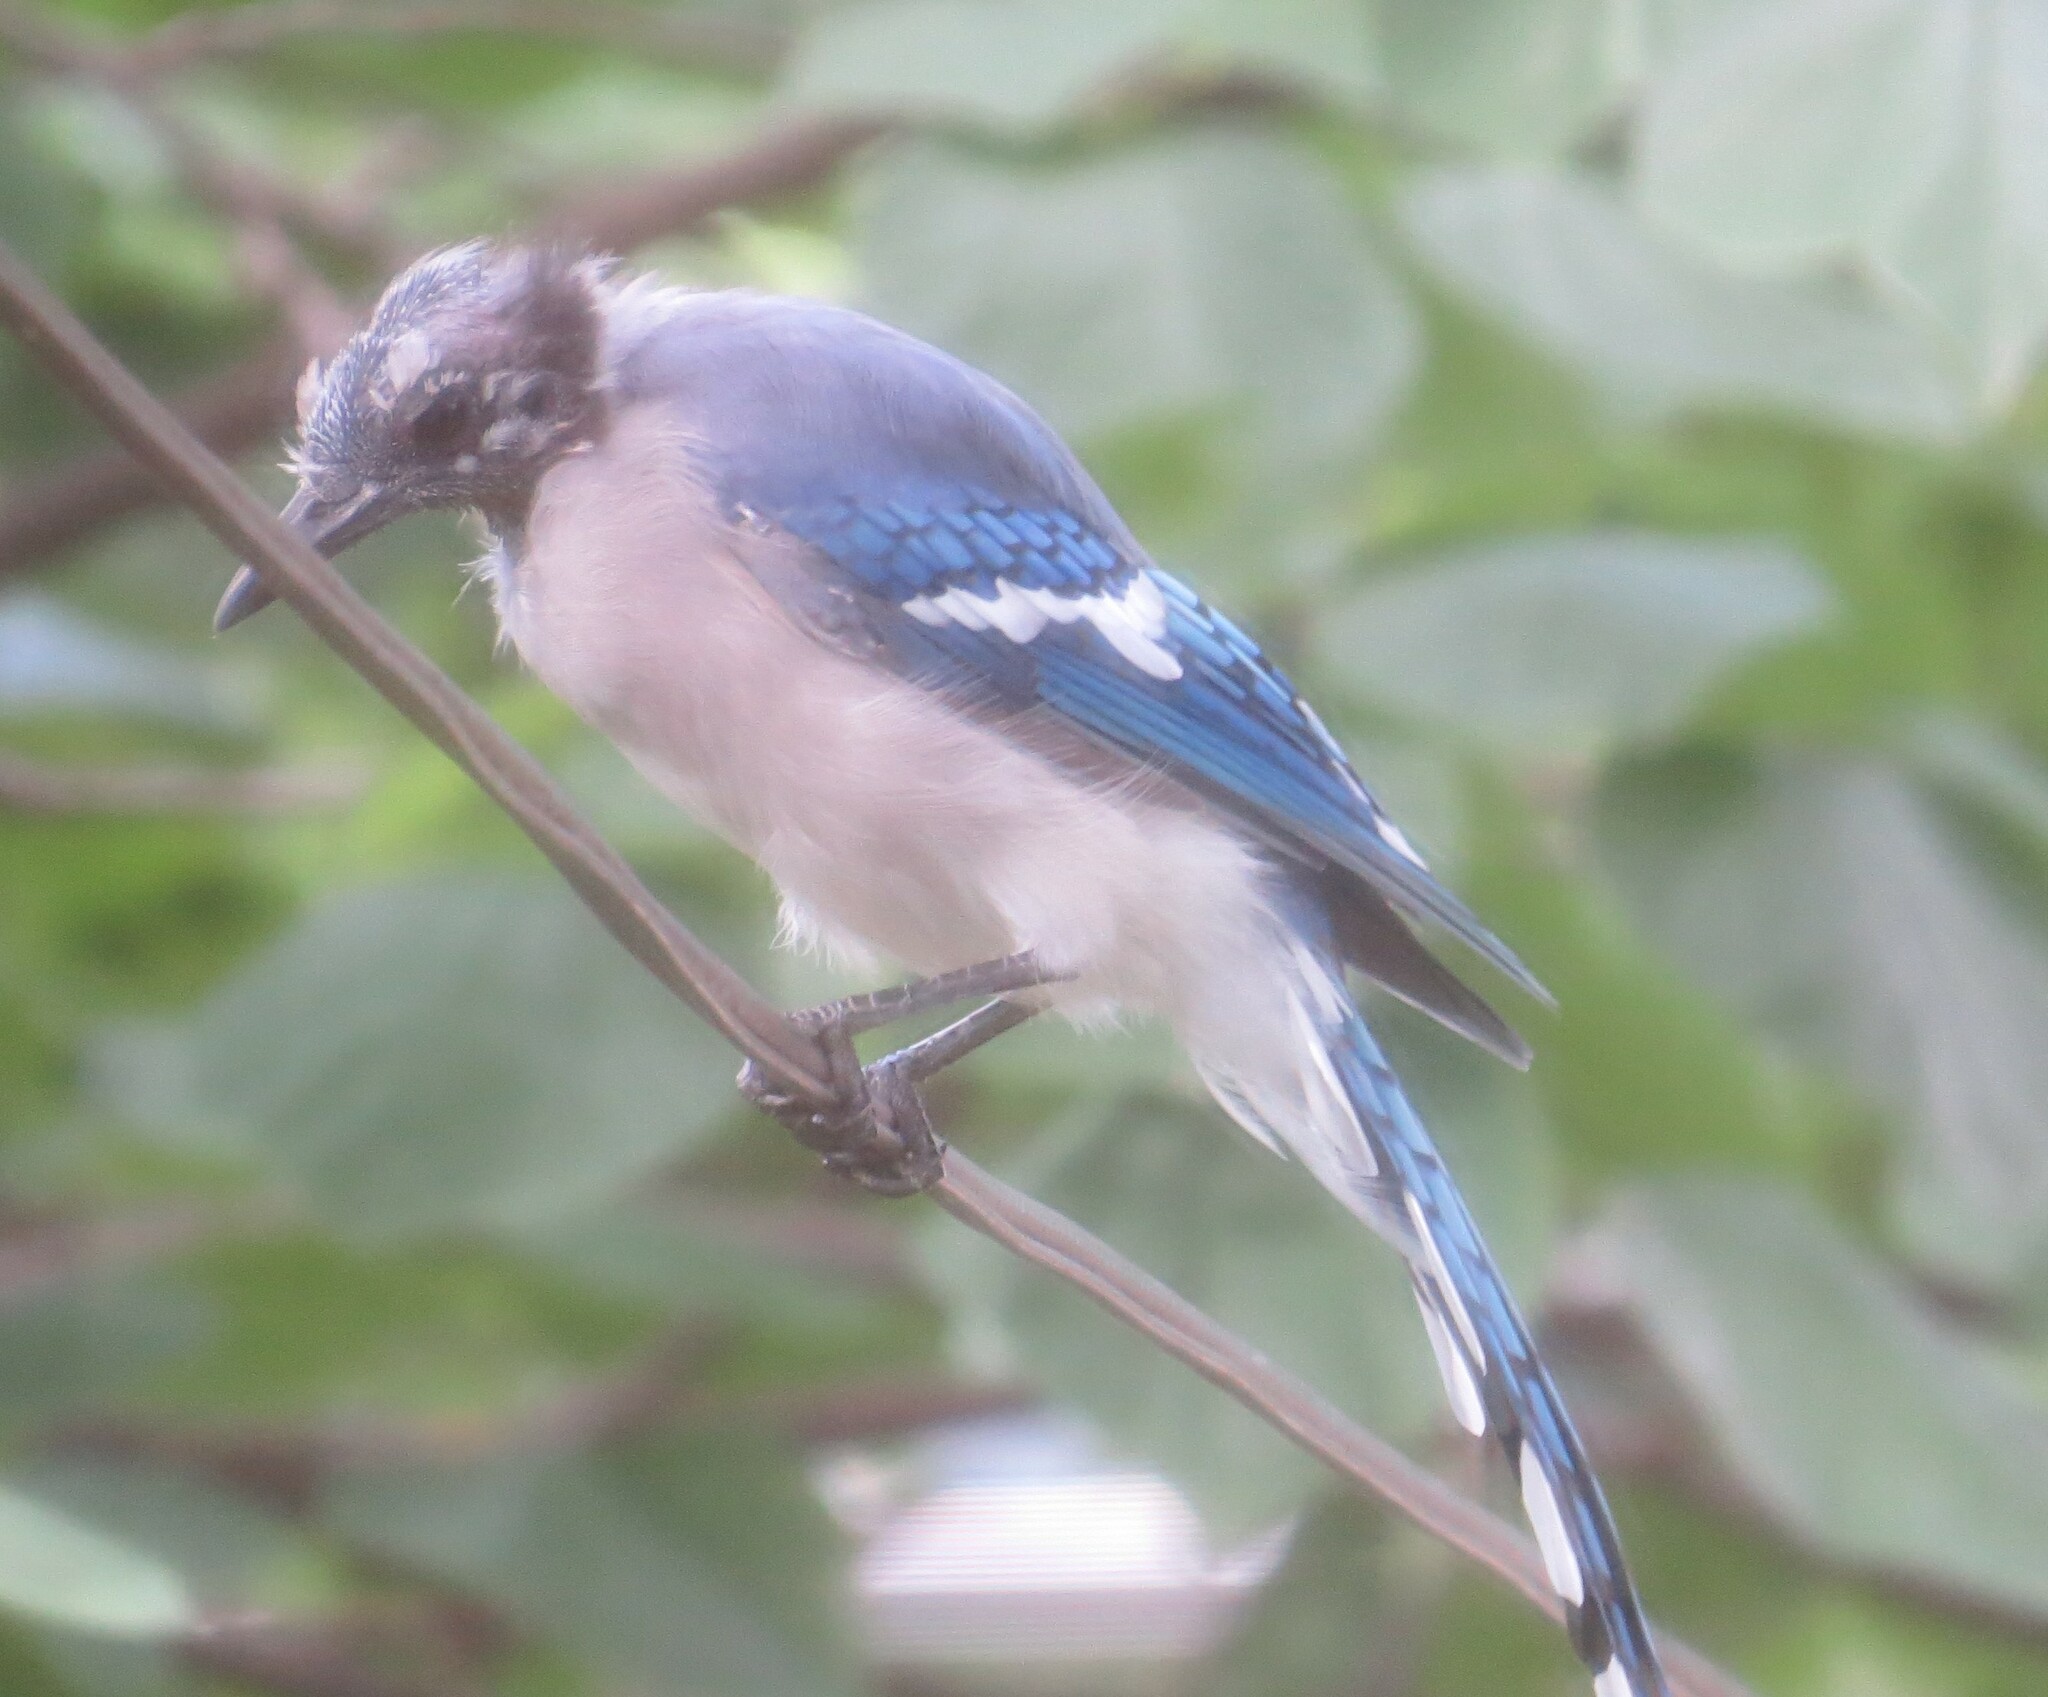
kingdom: Animalia
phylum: Chordata
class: Aves
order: Passeriformes
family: Corvidae
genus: Cyanocitta
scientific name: Cyanocitta cristata
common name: Blue jay
